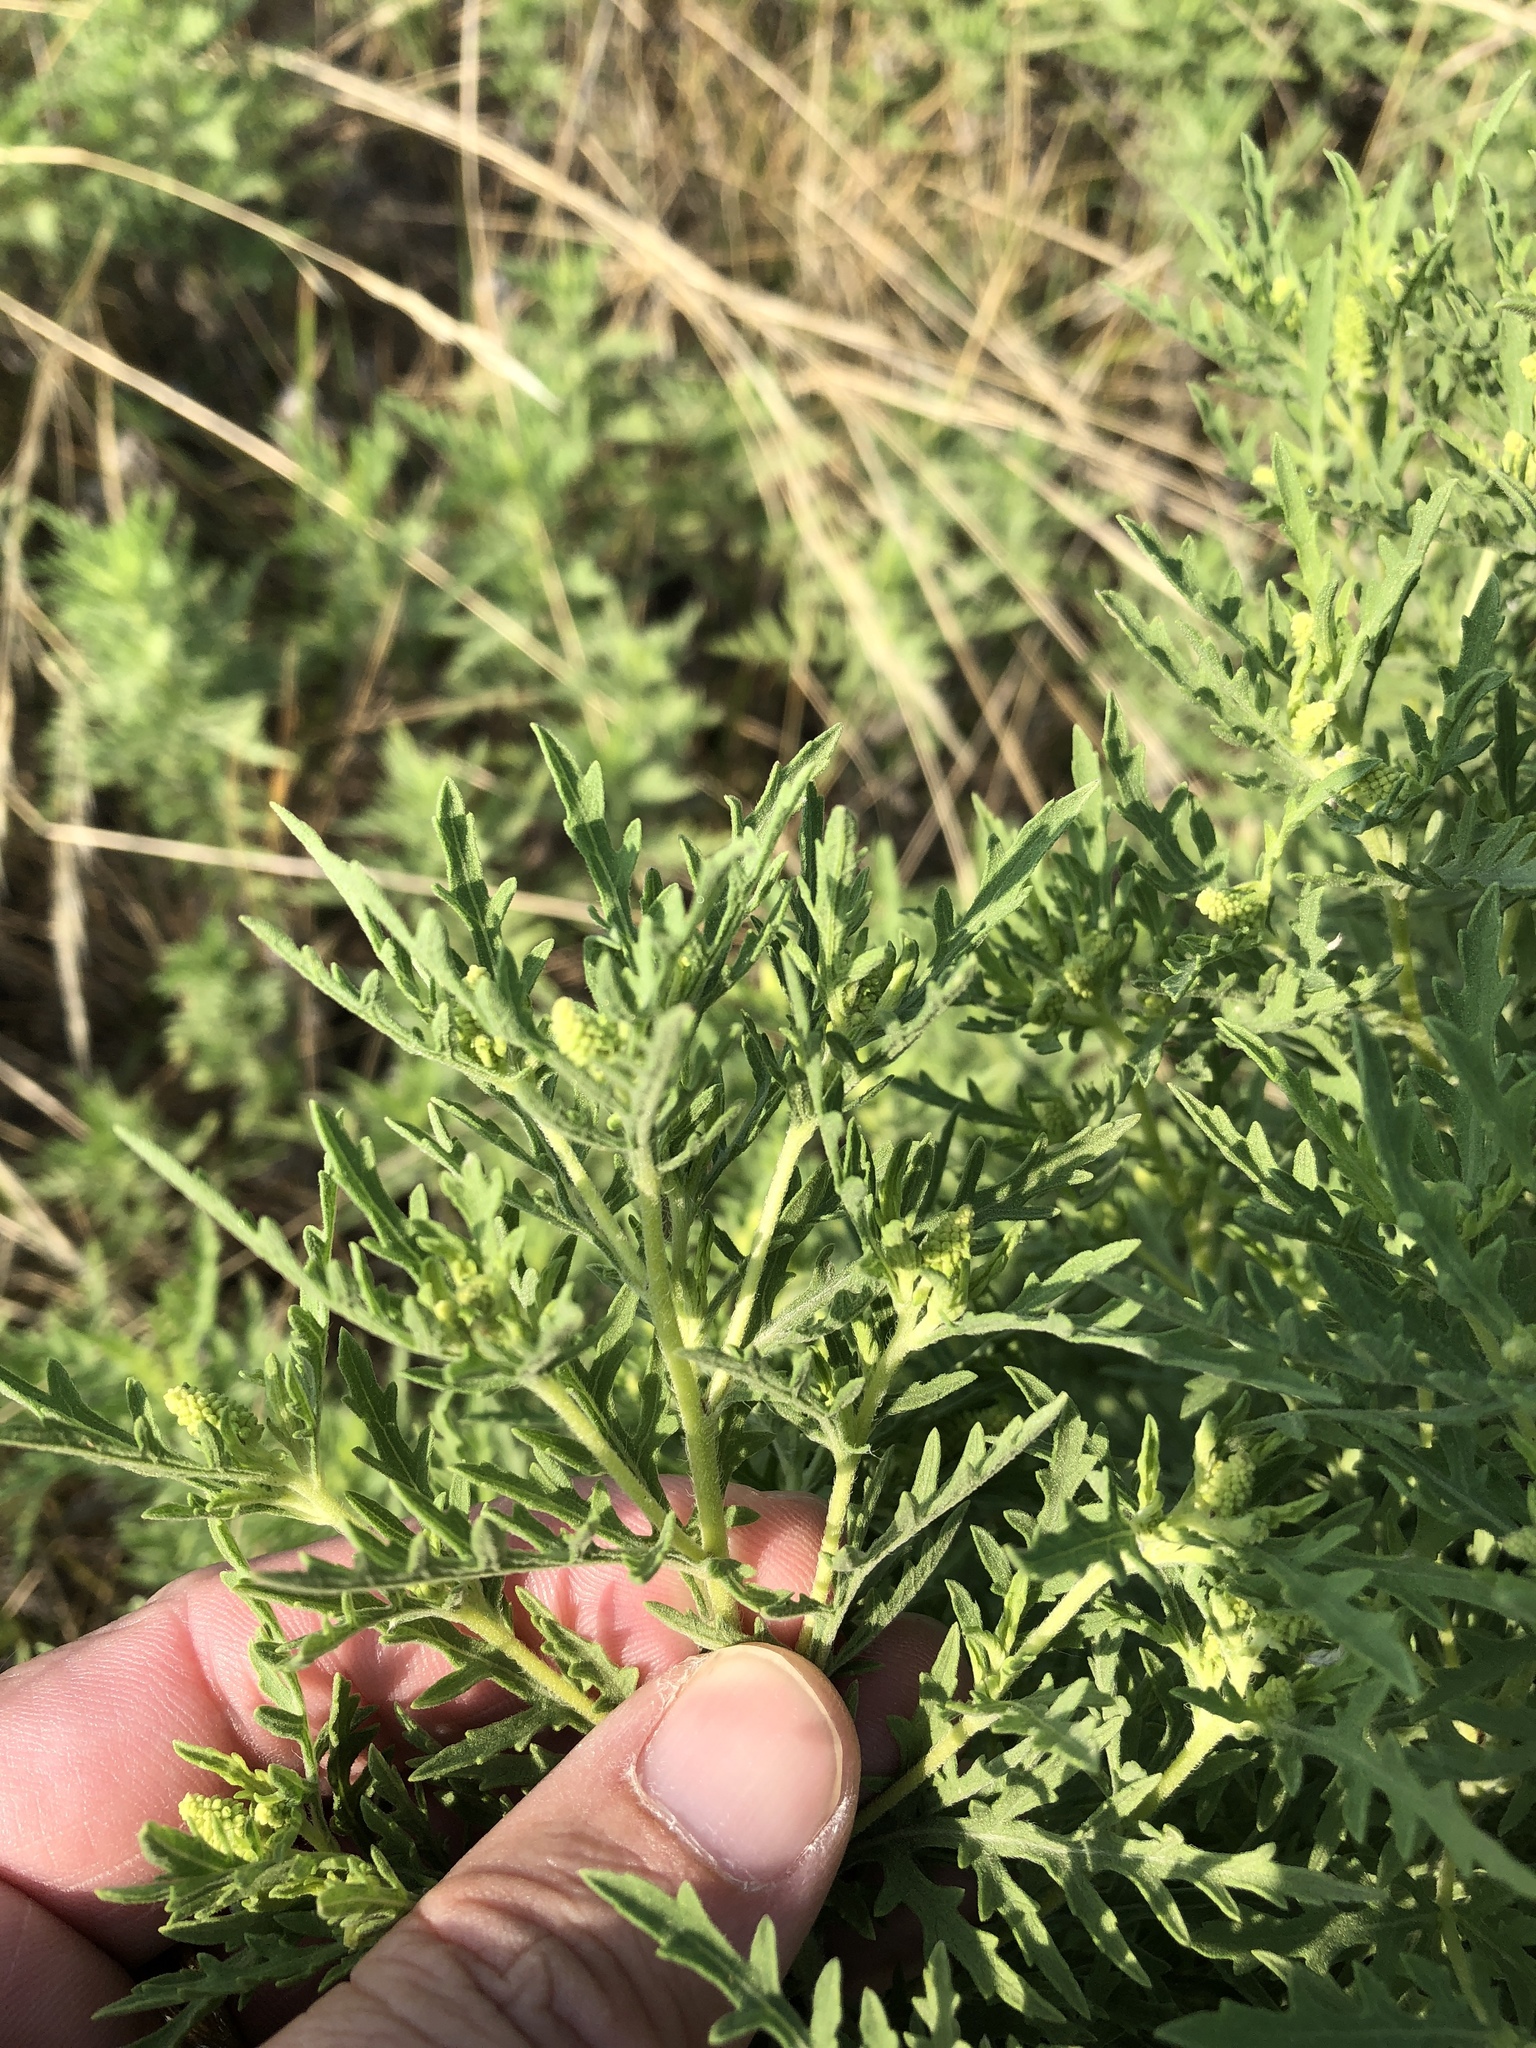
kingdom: Plantae
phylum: Tracheophyta
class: Magnoliopsida
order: Asterales
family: Asteraceae
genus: Ambrosia
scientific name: Ambrosia psilostachya
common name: Perennial ragweed
